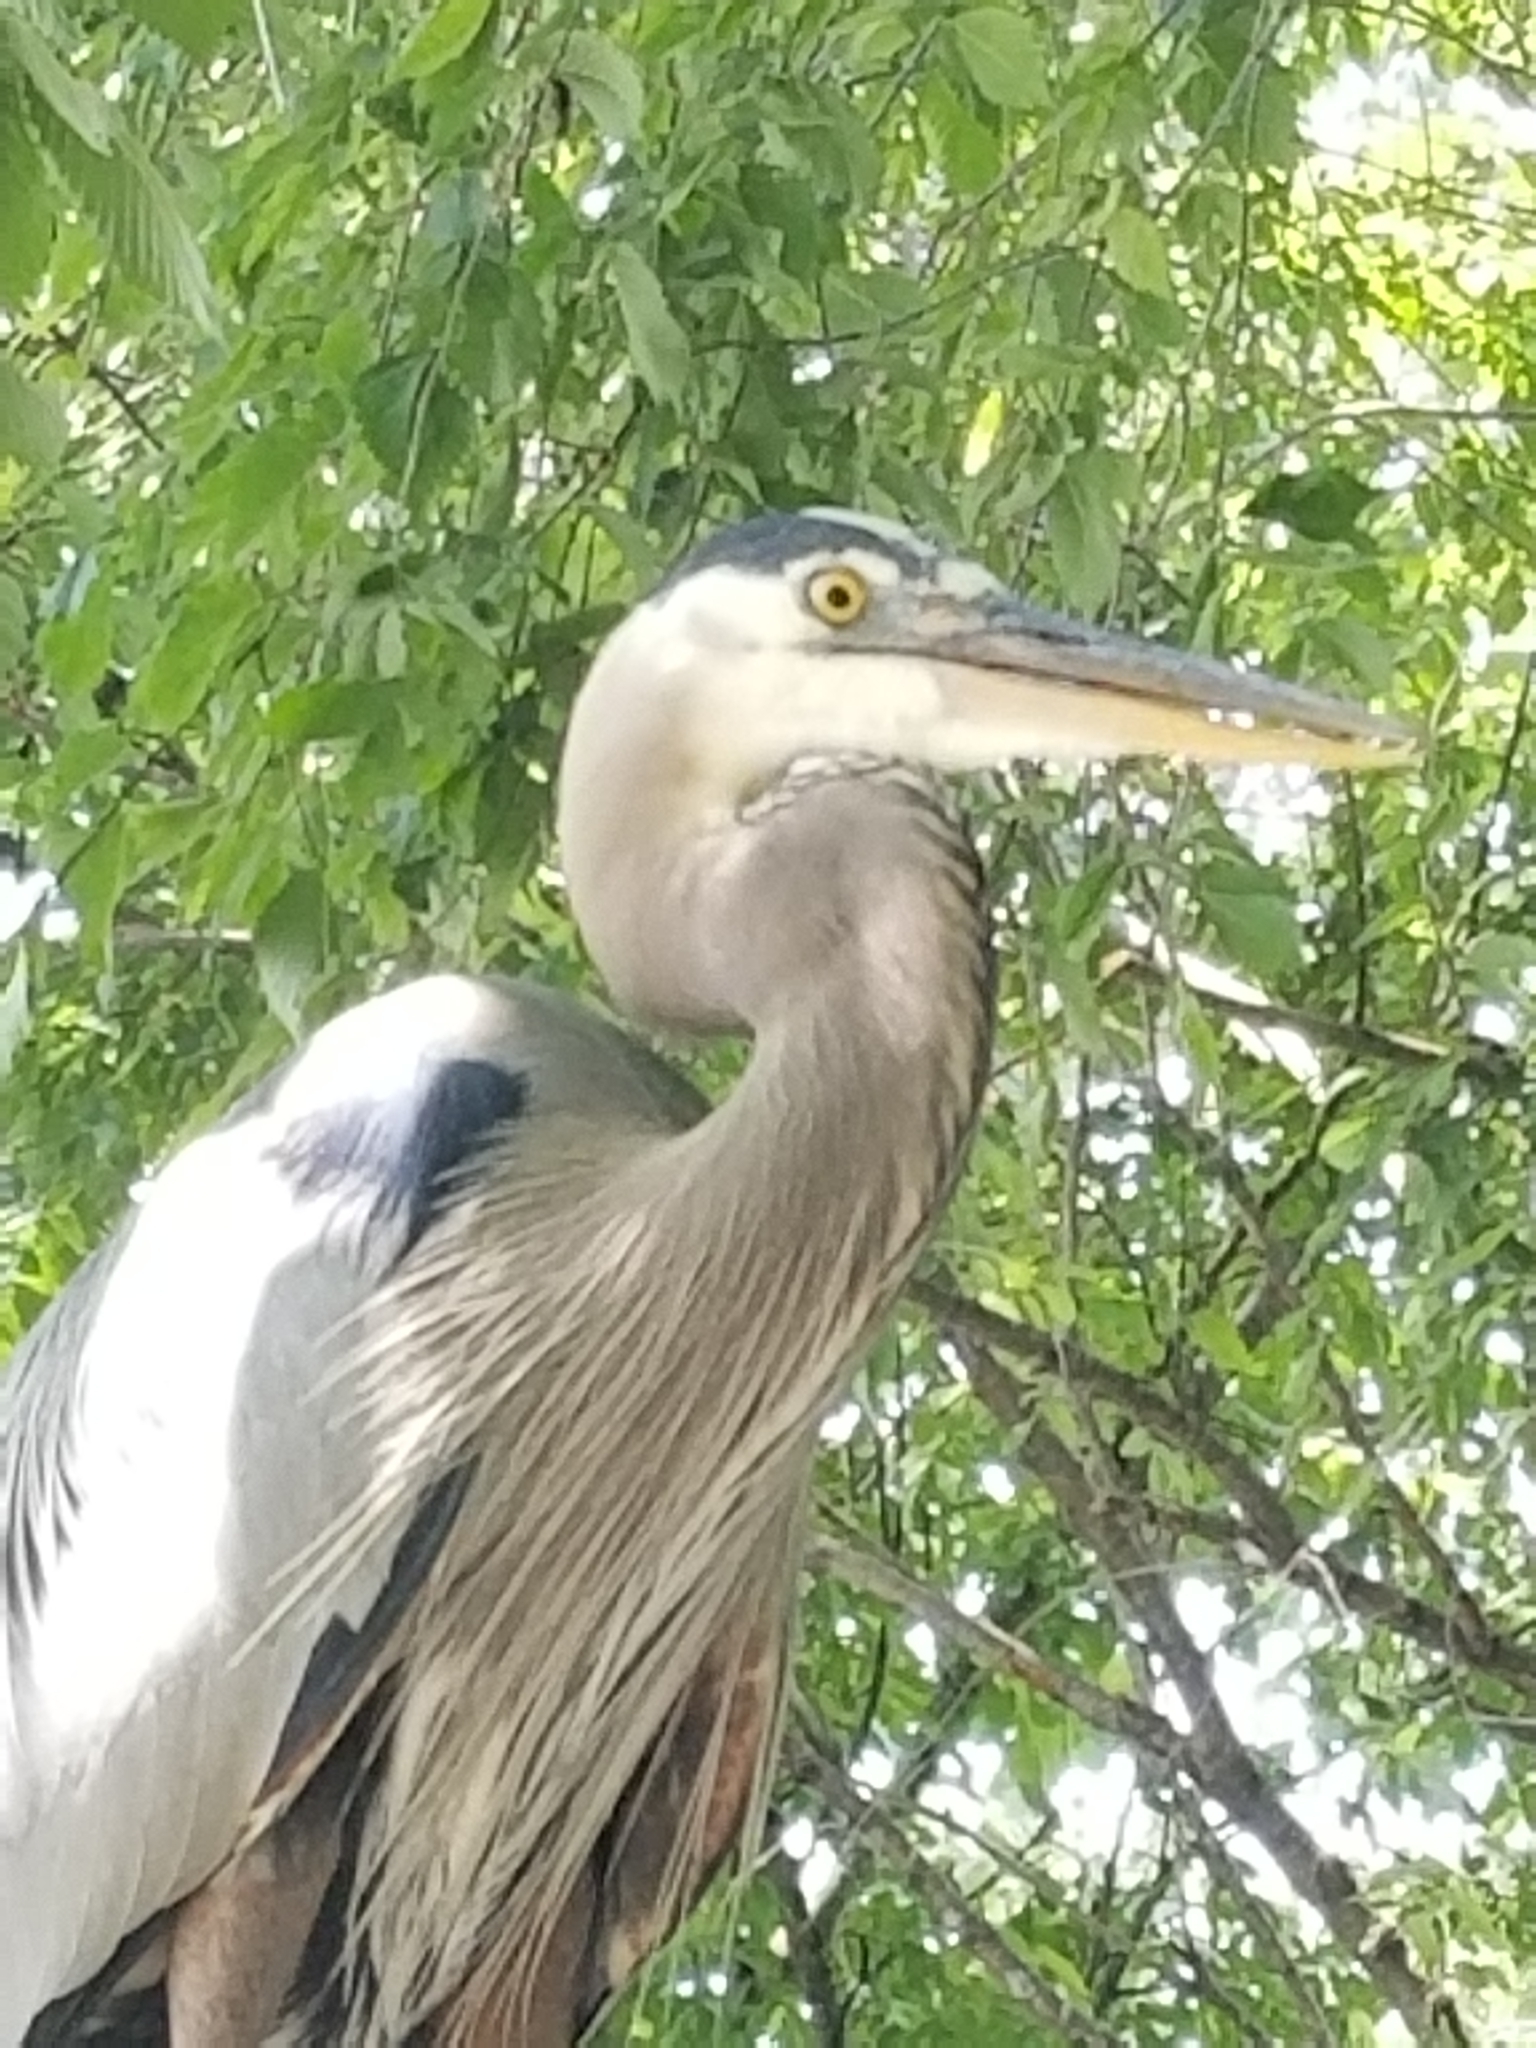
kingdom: Animalia
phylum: Chordata
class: Aves
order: Pelecaniformes
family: Ardeidae
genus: Ardea
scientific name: Ardea herodias
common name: Great blue heron
